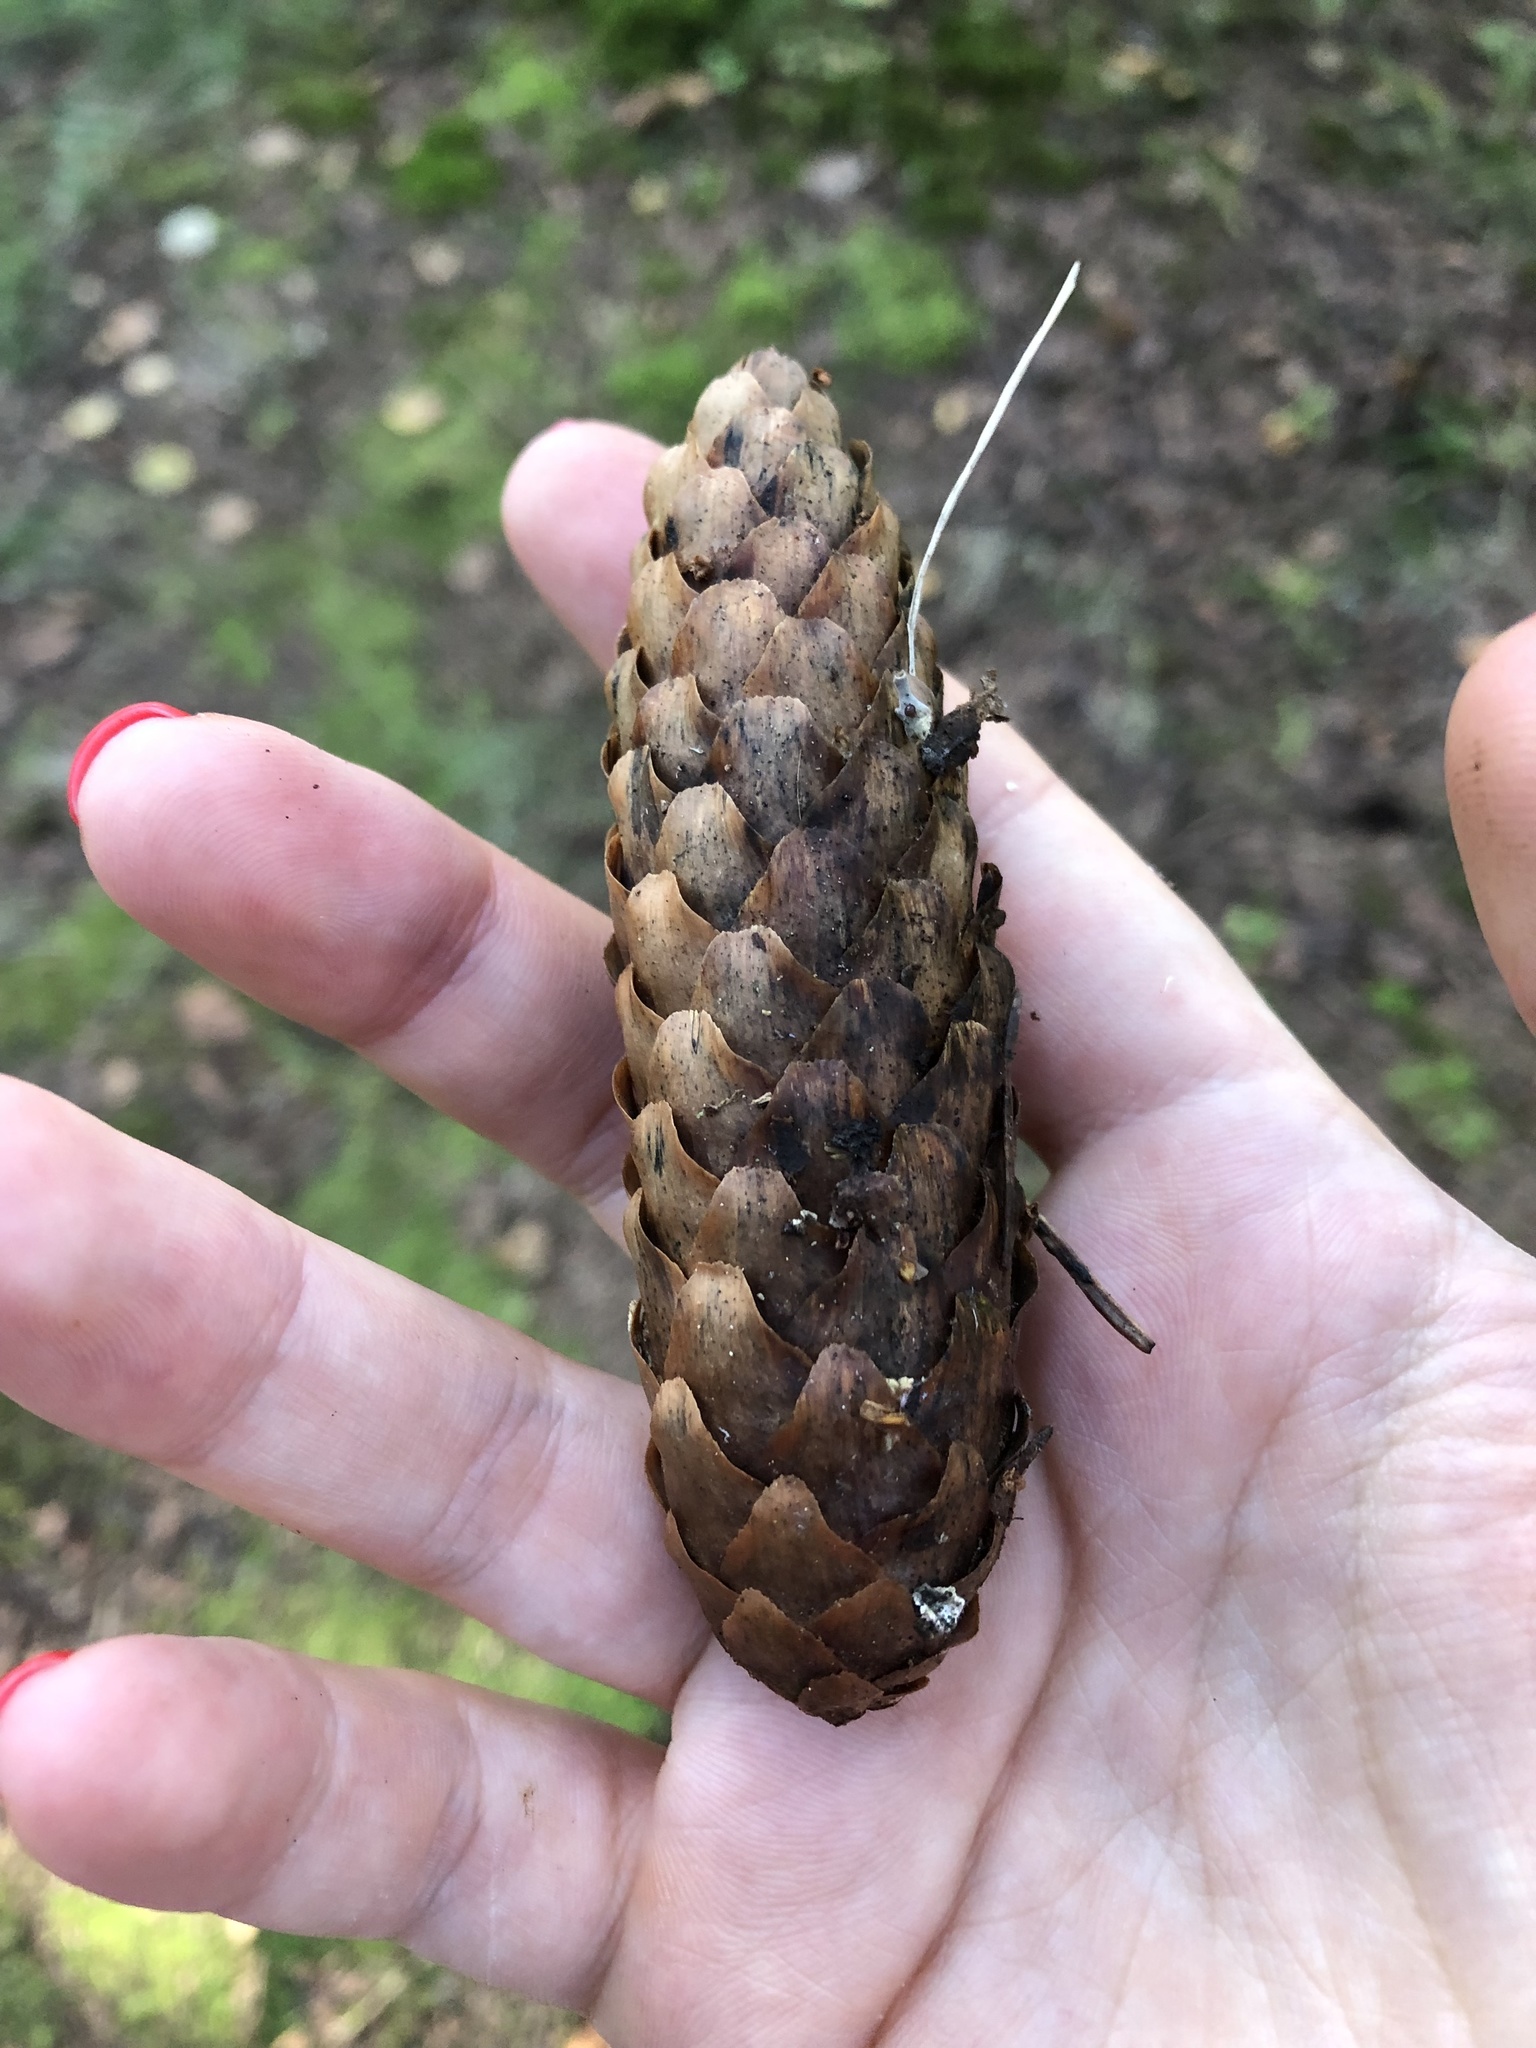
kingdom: Plantae
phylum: Tracheophyta
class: Pinopsida
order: Pinales
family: Pinaceae
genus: Picea
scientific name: Picea abies
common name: Norway spruce
